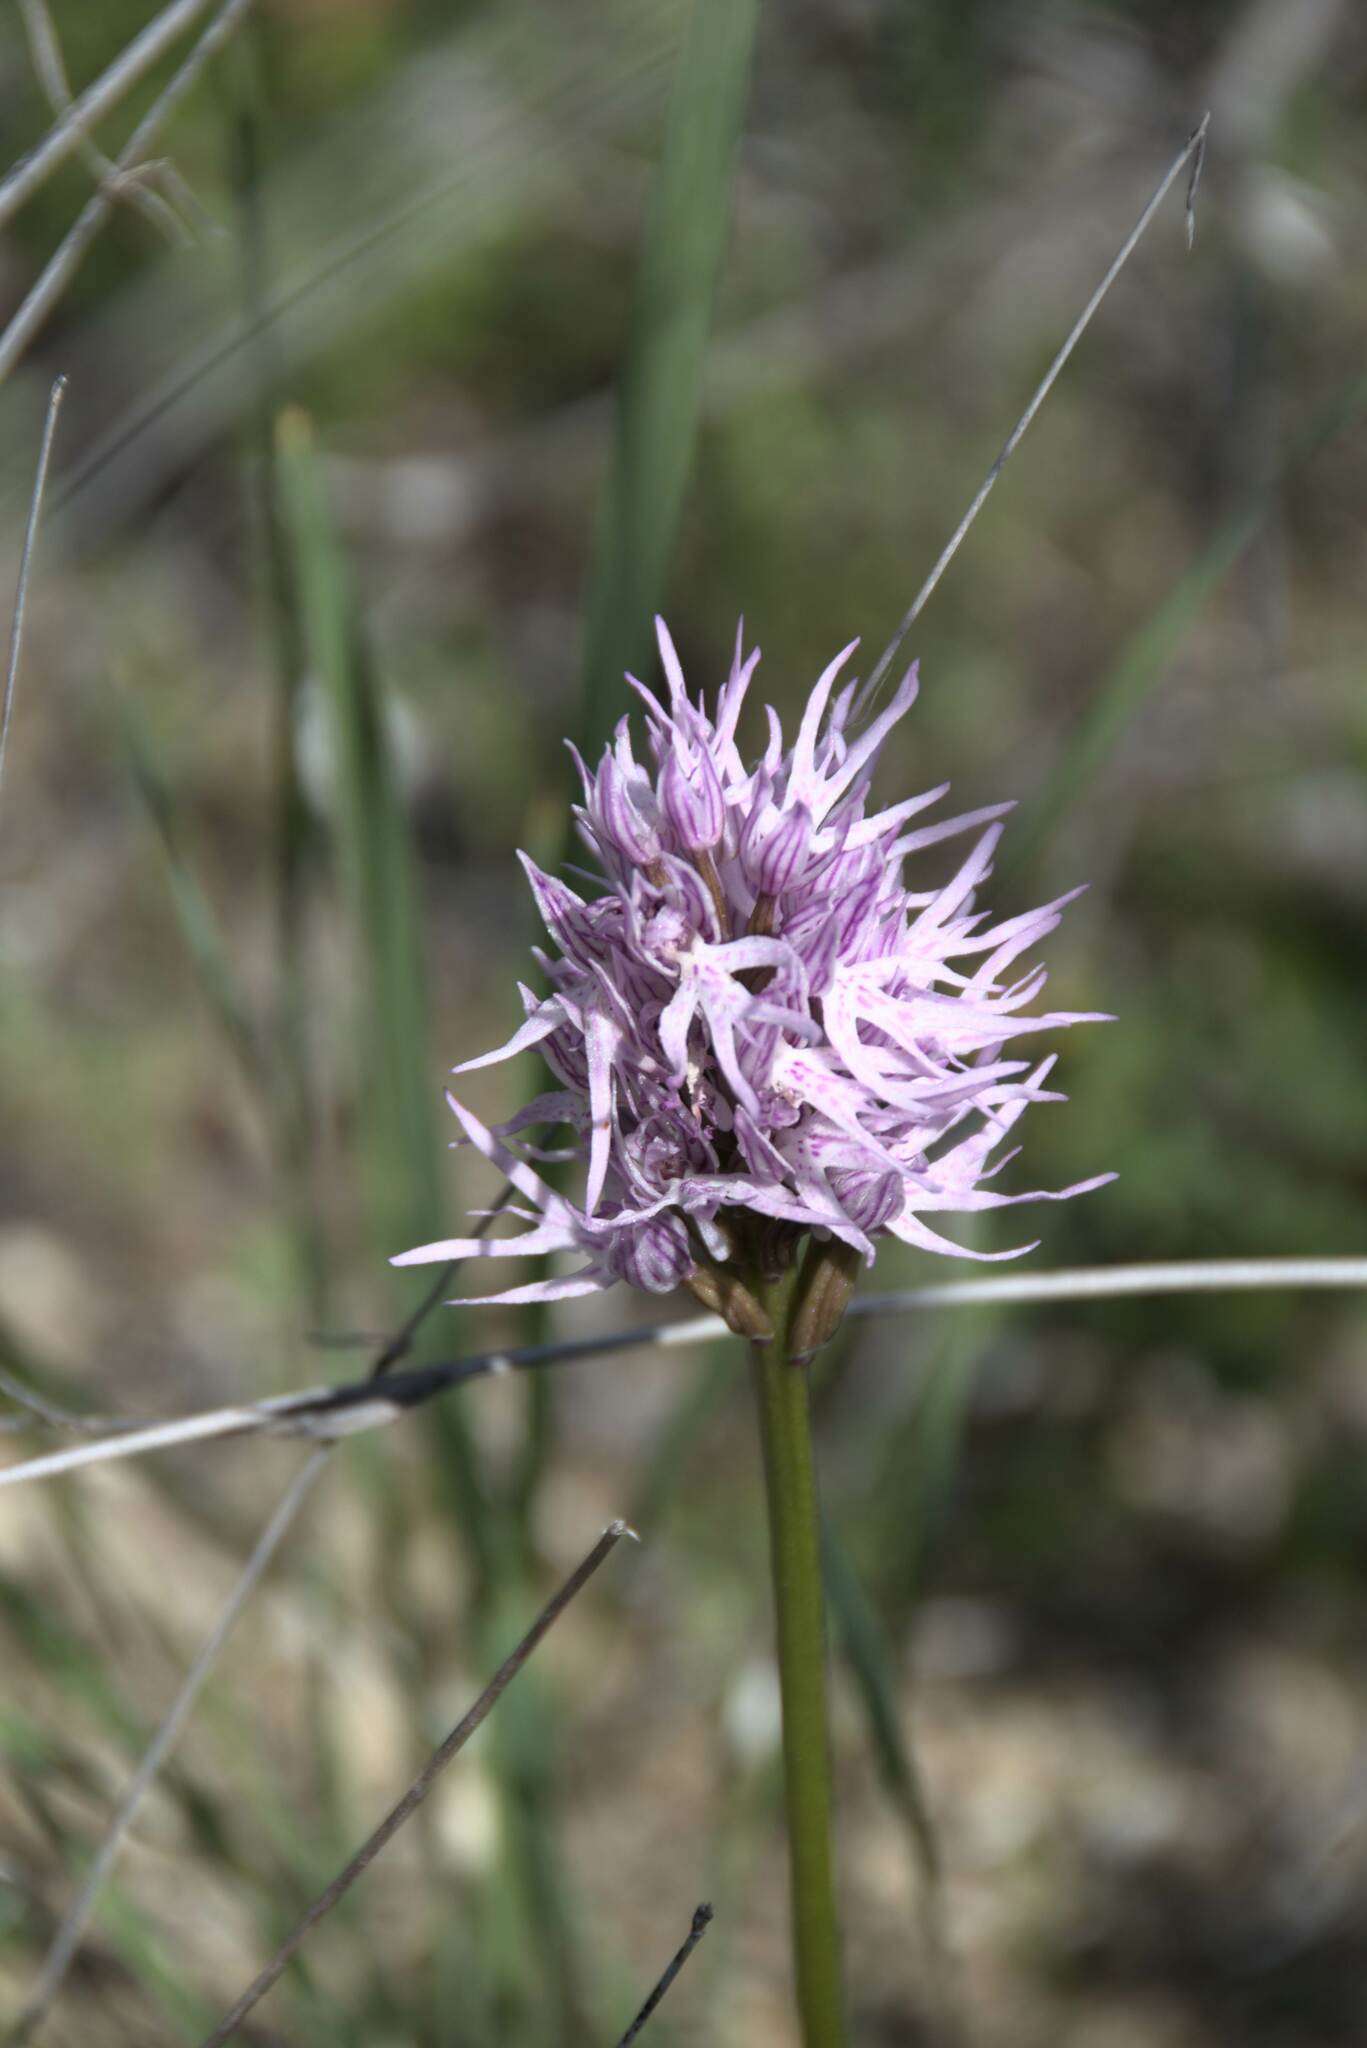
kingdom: Plantae
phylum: Tracheophyta
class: Liliopsida
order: Asparagales
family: Orchidaceae
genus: Orchis
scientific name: Orchis italica
